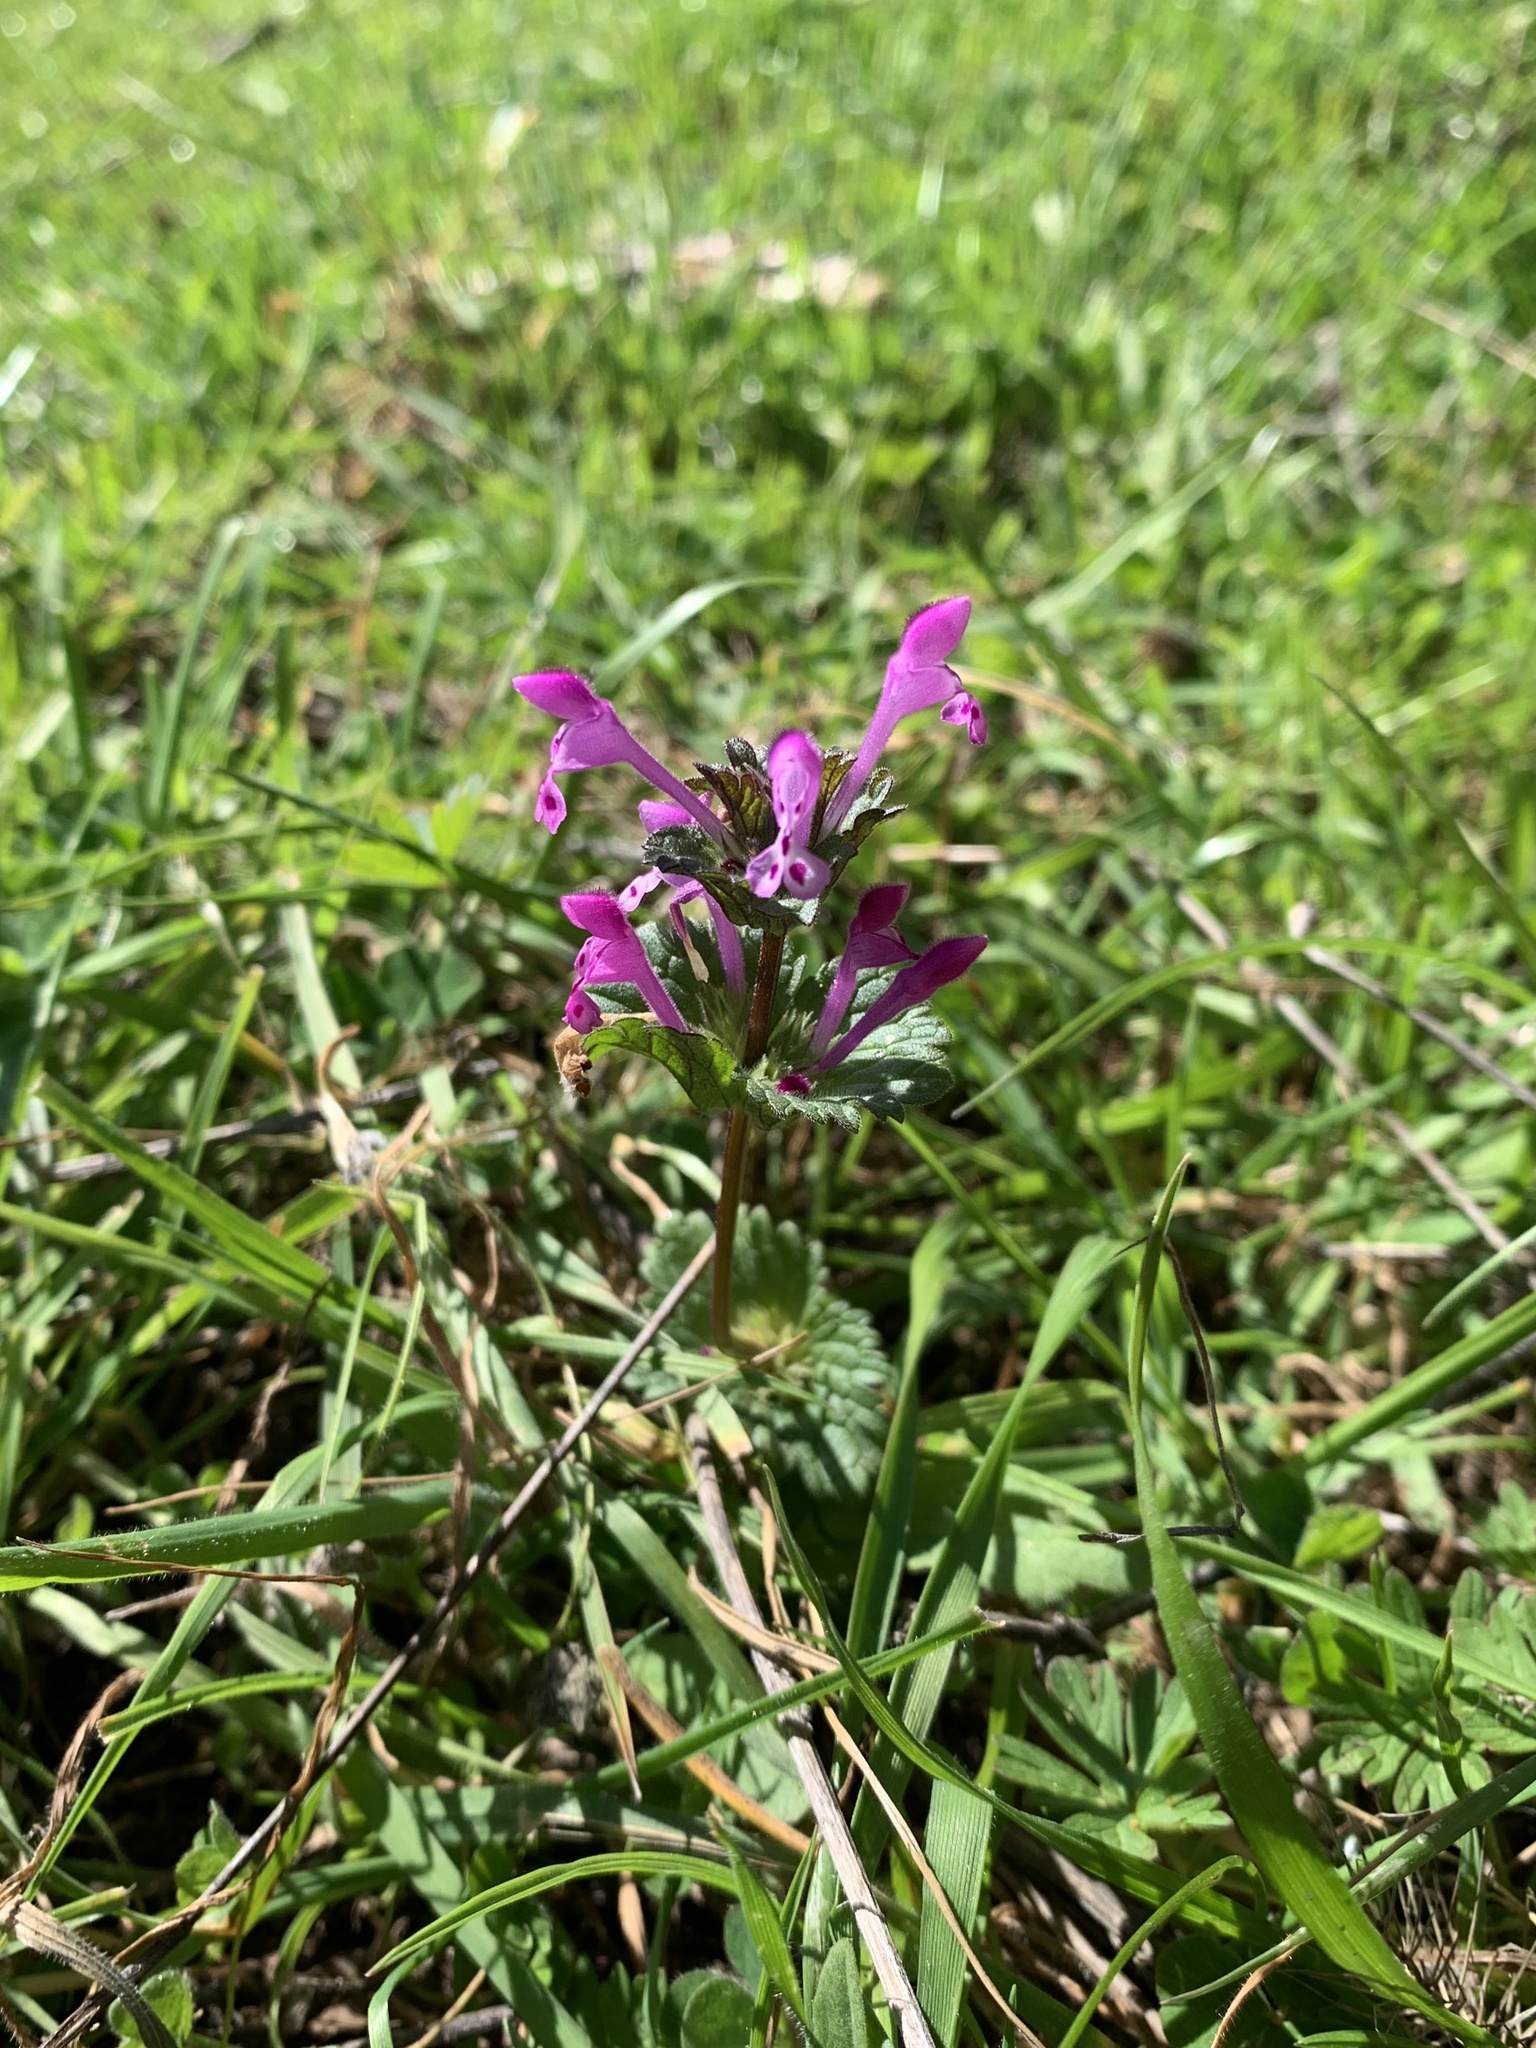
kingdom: Plantae
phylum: Tracheophyta
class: Magnoliopsida
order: Lamiales
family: Lamiaceae
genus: Lamium
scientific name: Lamium amplexicaule
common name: Henbit dead-nettle
